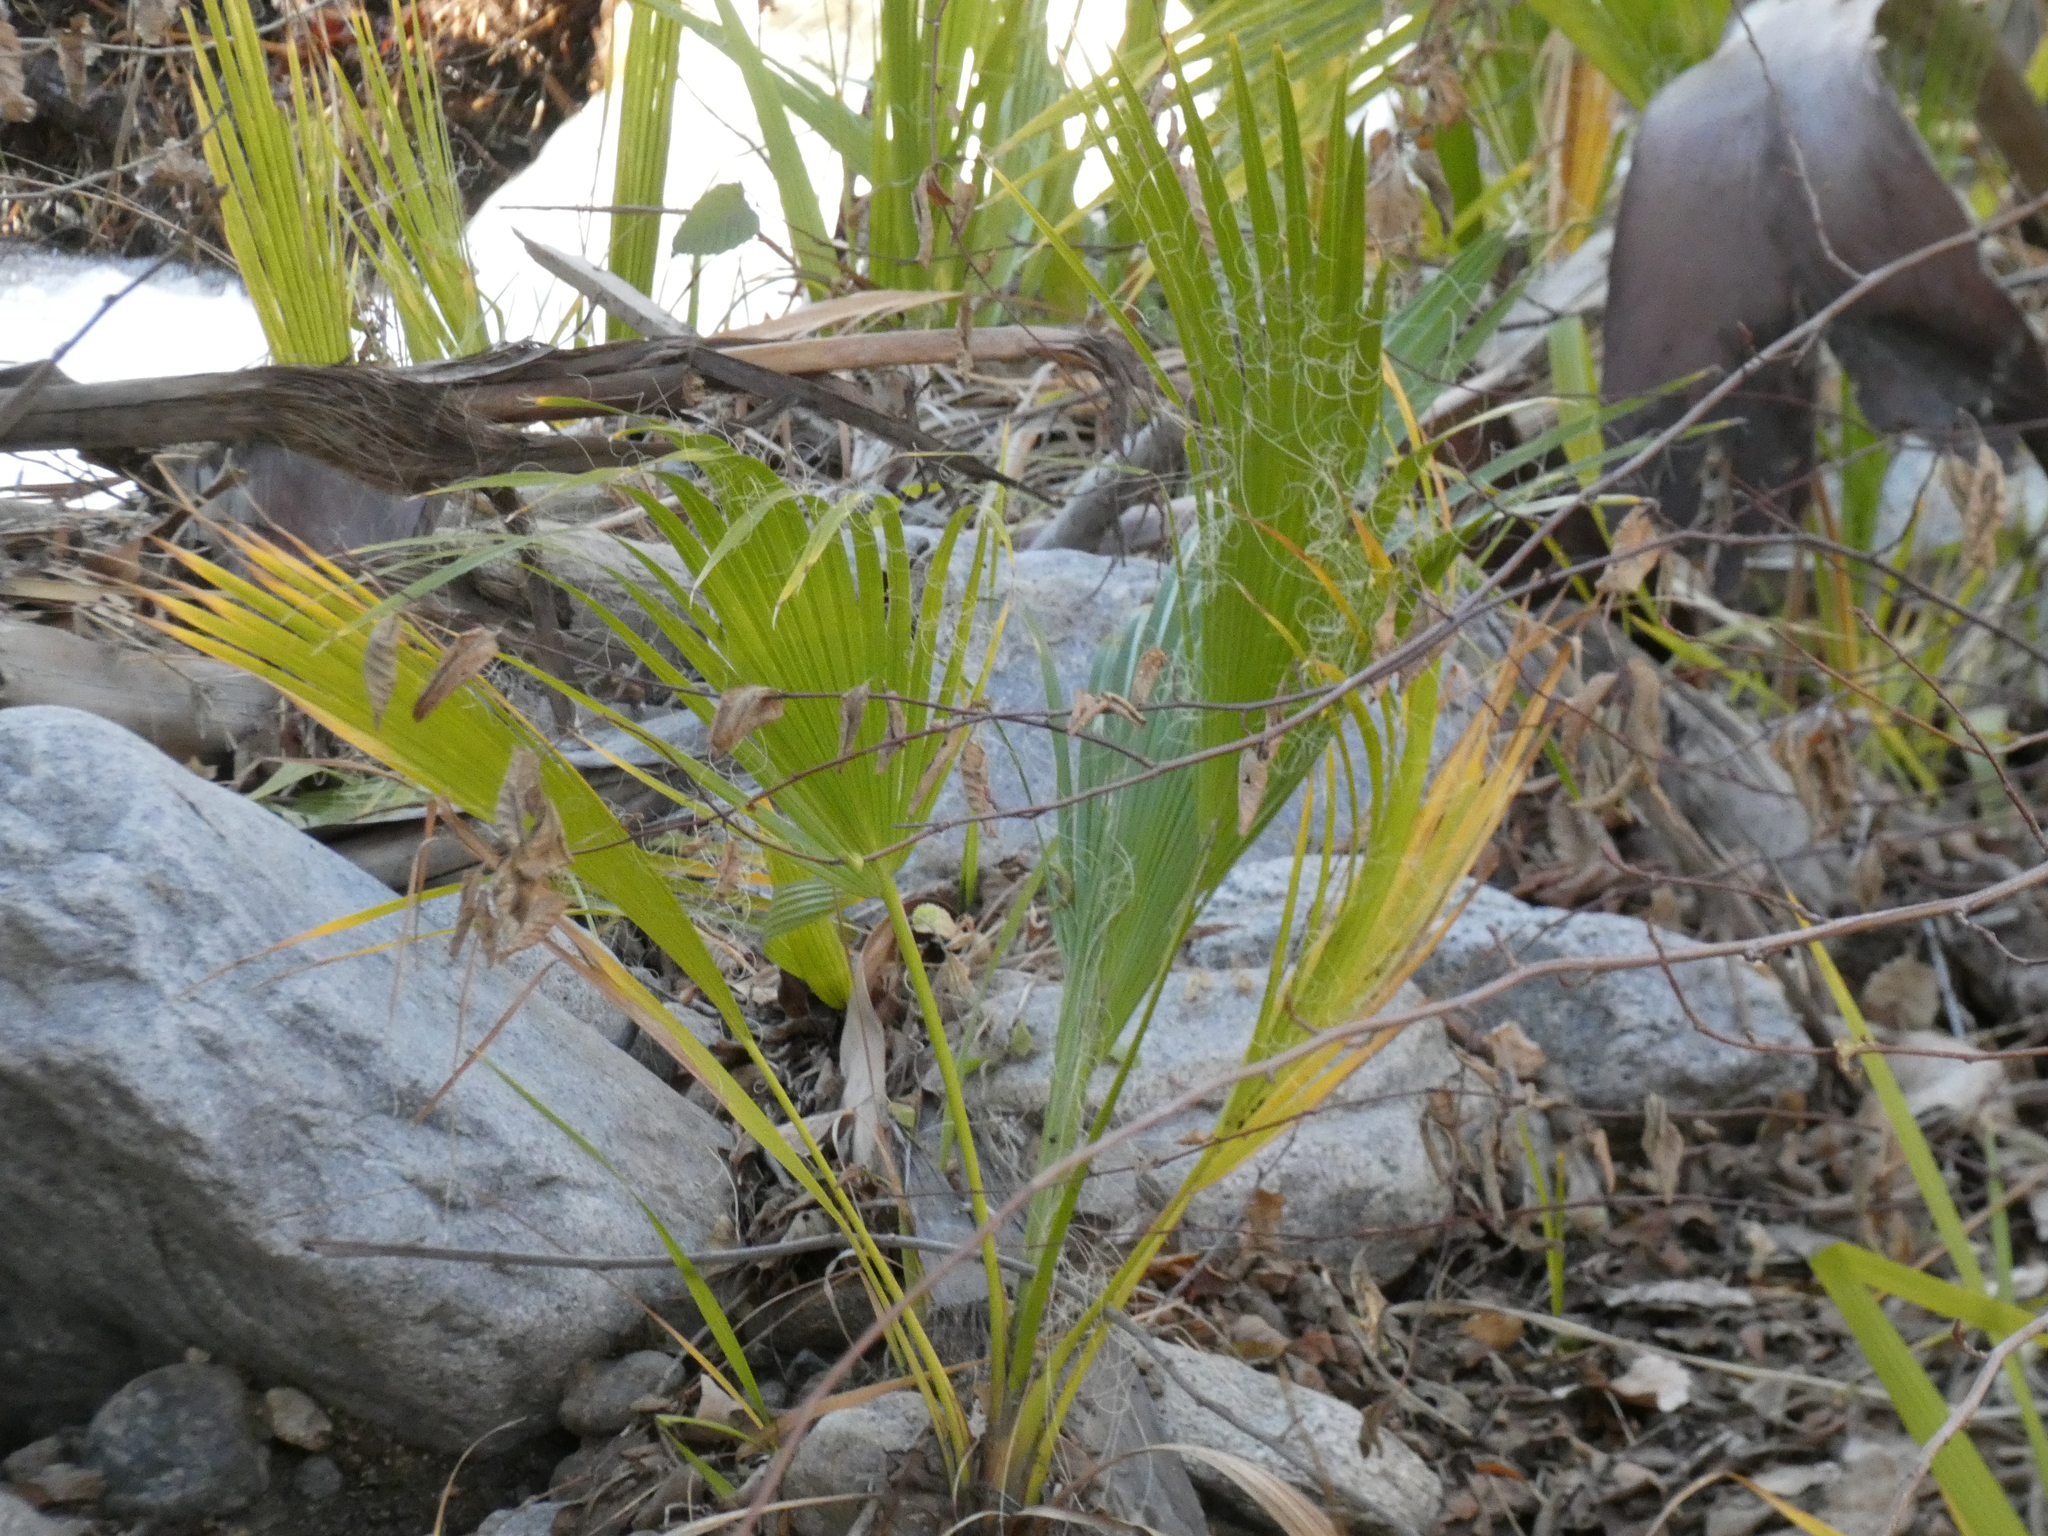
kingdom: Plantae
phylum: Tracheophyta
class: Liliopsida
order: Arecales
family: Arecaceae
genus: Washingtonia
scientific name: Washingtonia filifera
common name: California fan palm
